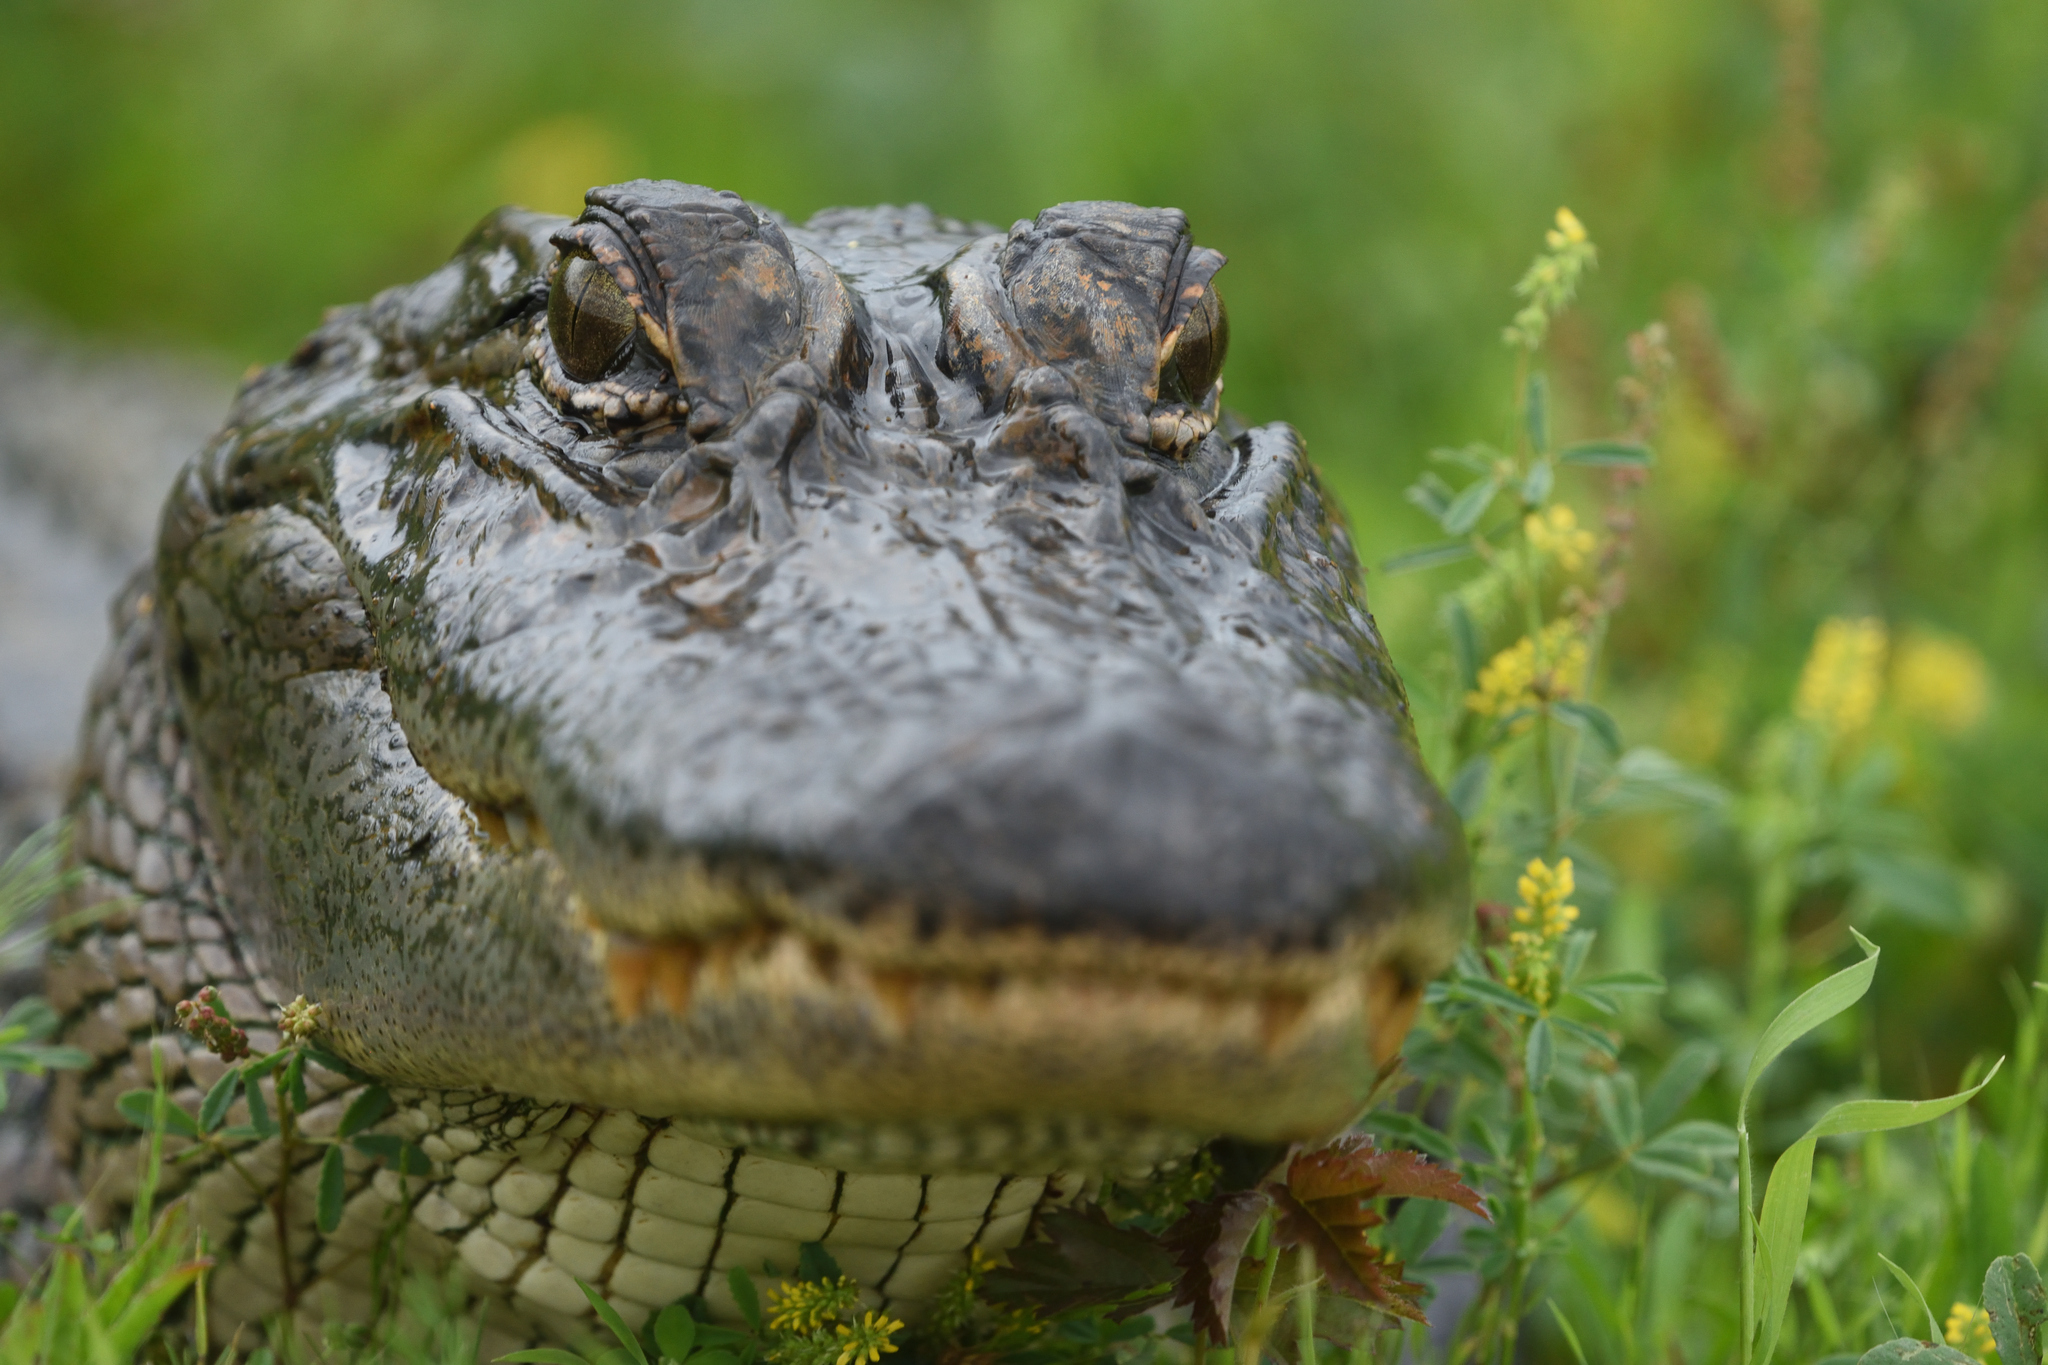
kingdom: Animalia
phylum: Chordata
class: Crocodylia
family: Alligatoridae
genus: Alligator
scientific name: Alligator mississippiensis
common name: American alligator
